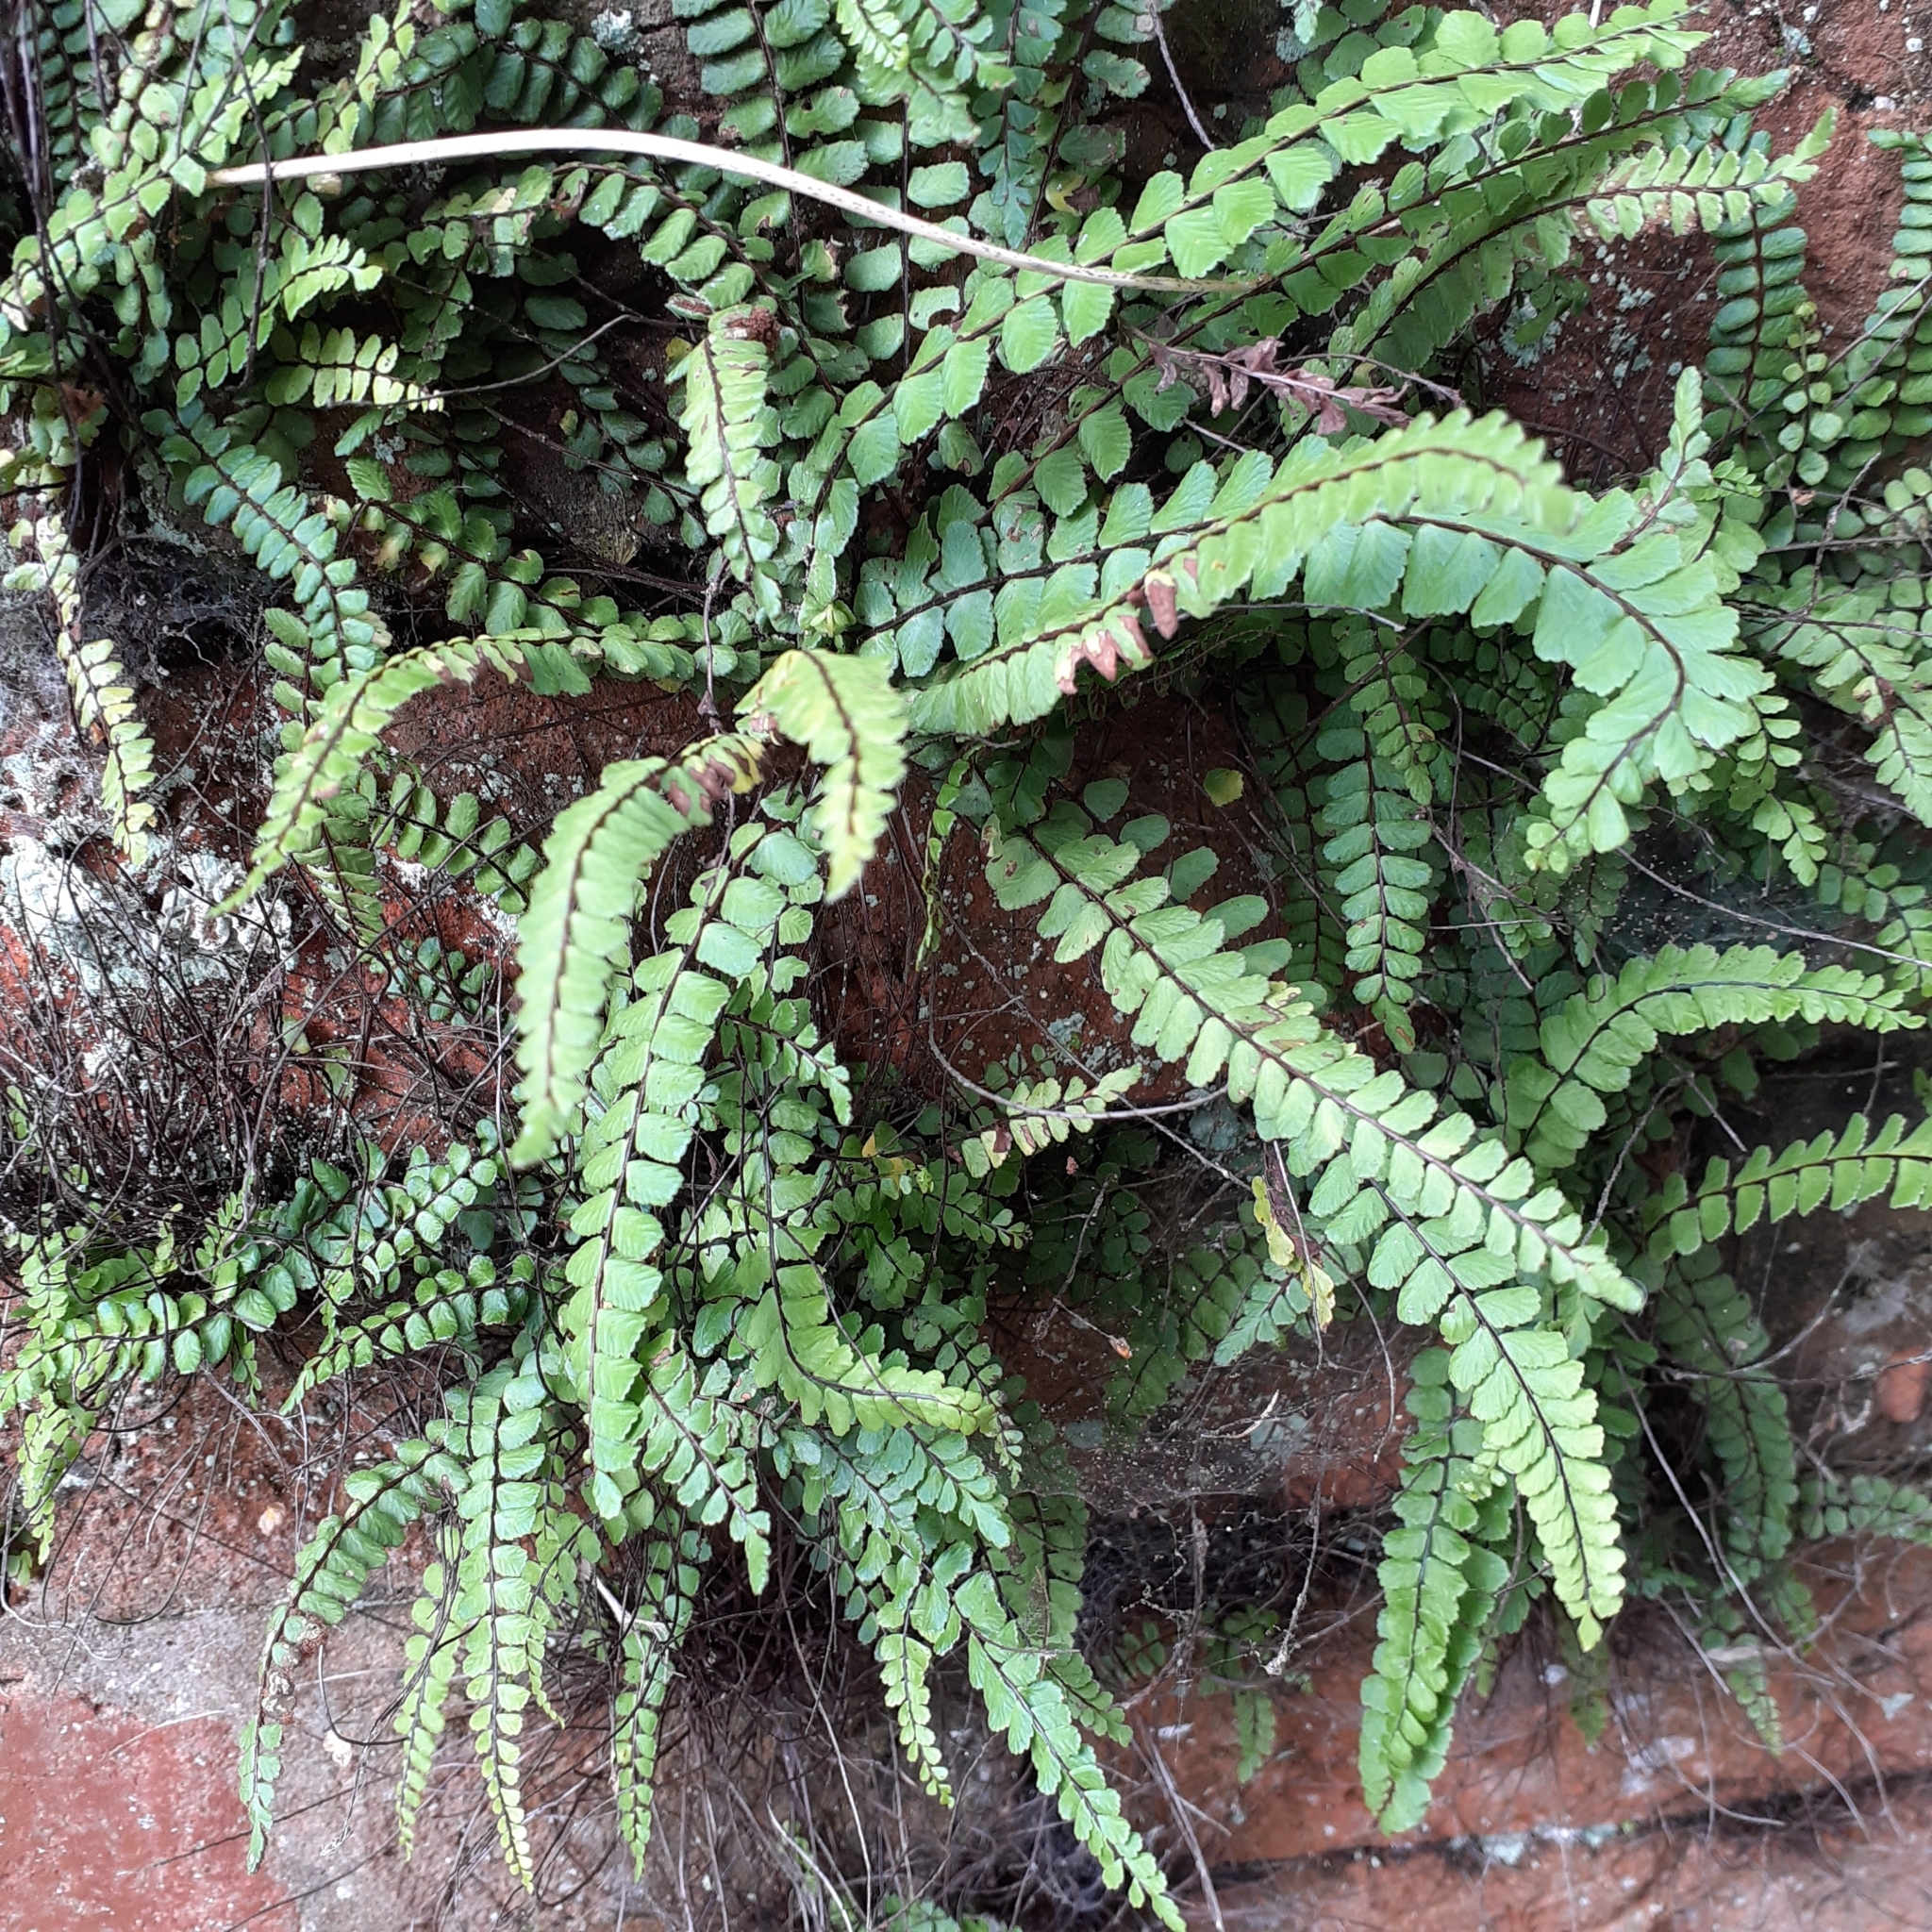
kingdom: Plantae
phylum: Tracheophyta
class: Polypodiopsida
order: Polypodiales
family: Aspleniaceae
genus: Asplenium
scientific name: Asplenium trichomanes
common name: Maidenhair spleenwort
